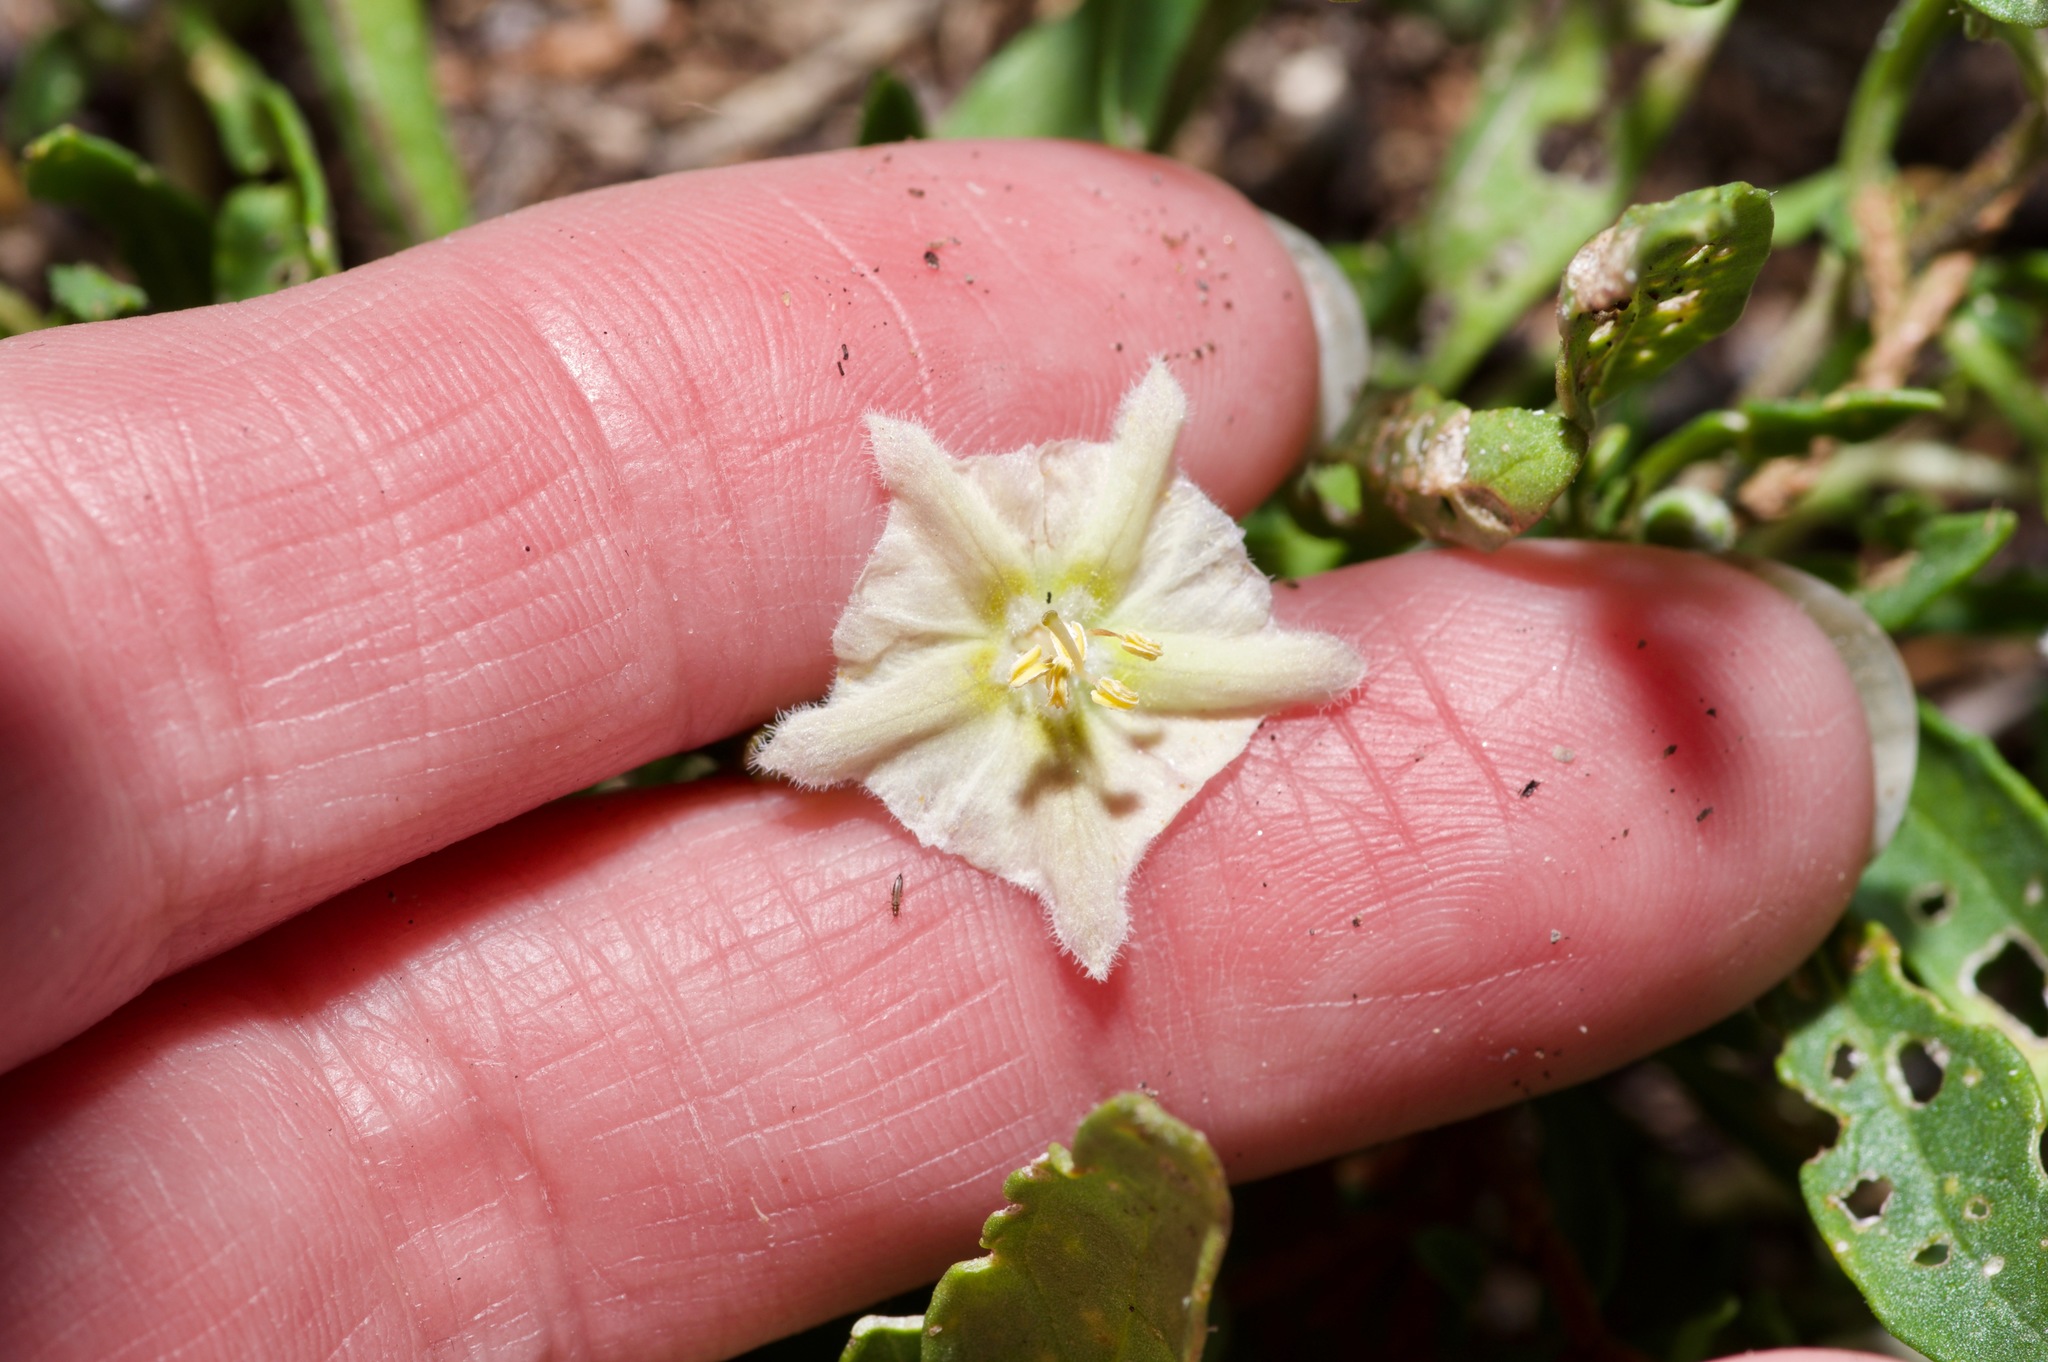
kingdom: Plantae
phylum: Tracheophyta
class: Magnoliopsida
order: Solanales
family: Solanaceae
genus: Chamaesaracha
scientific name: Chamaesaracha edwardsiana
